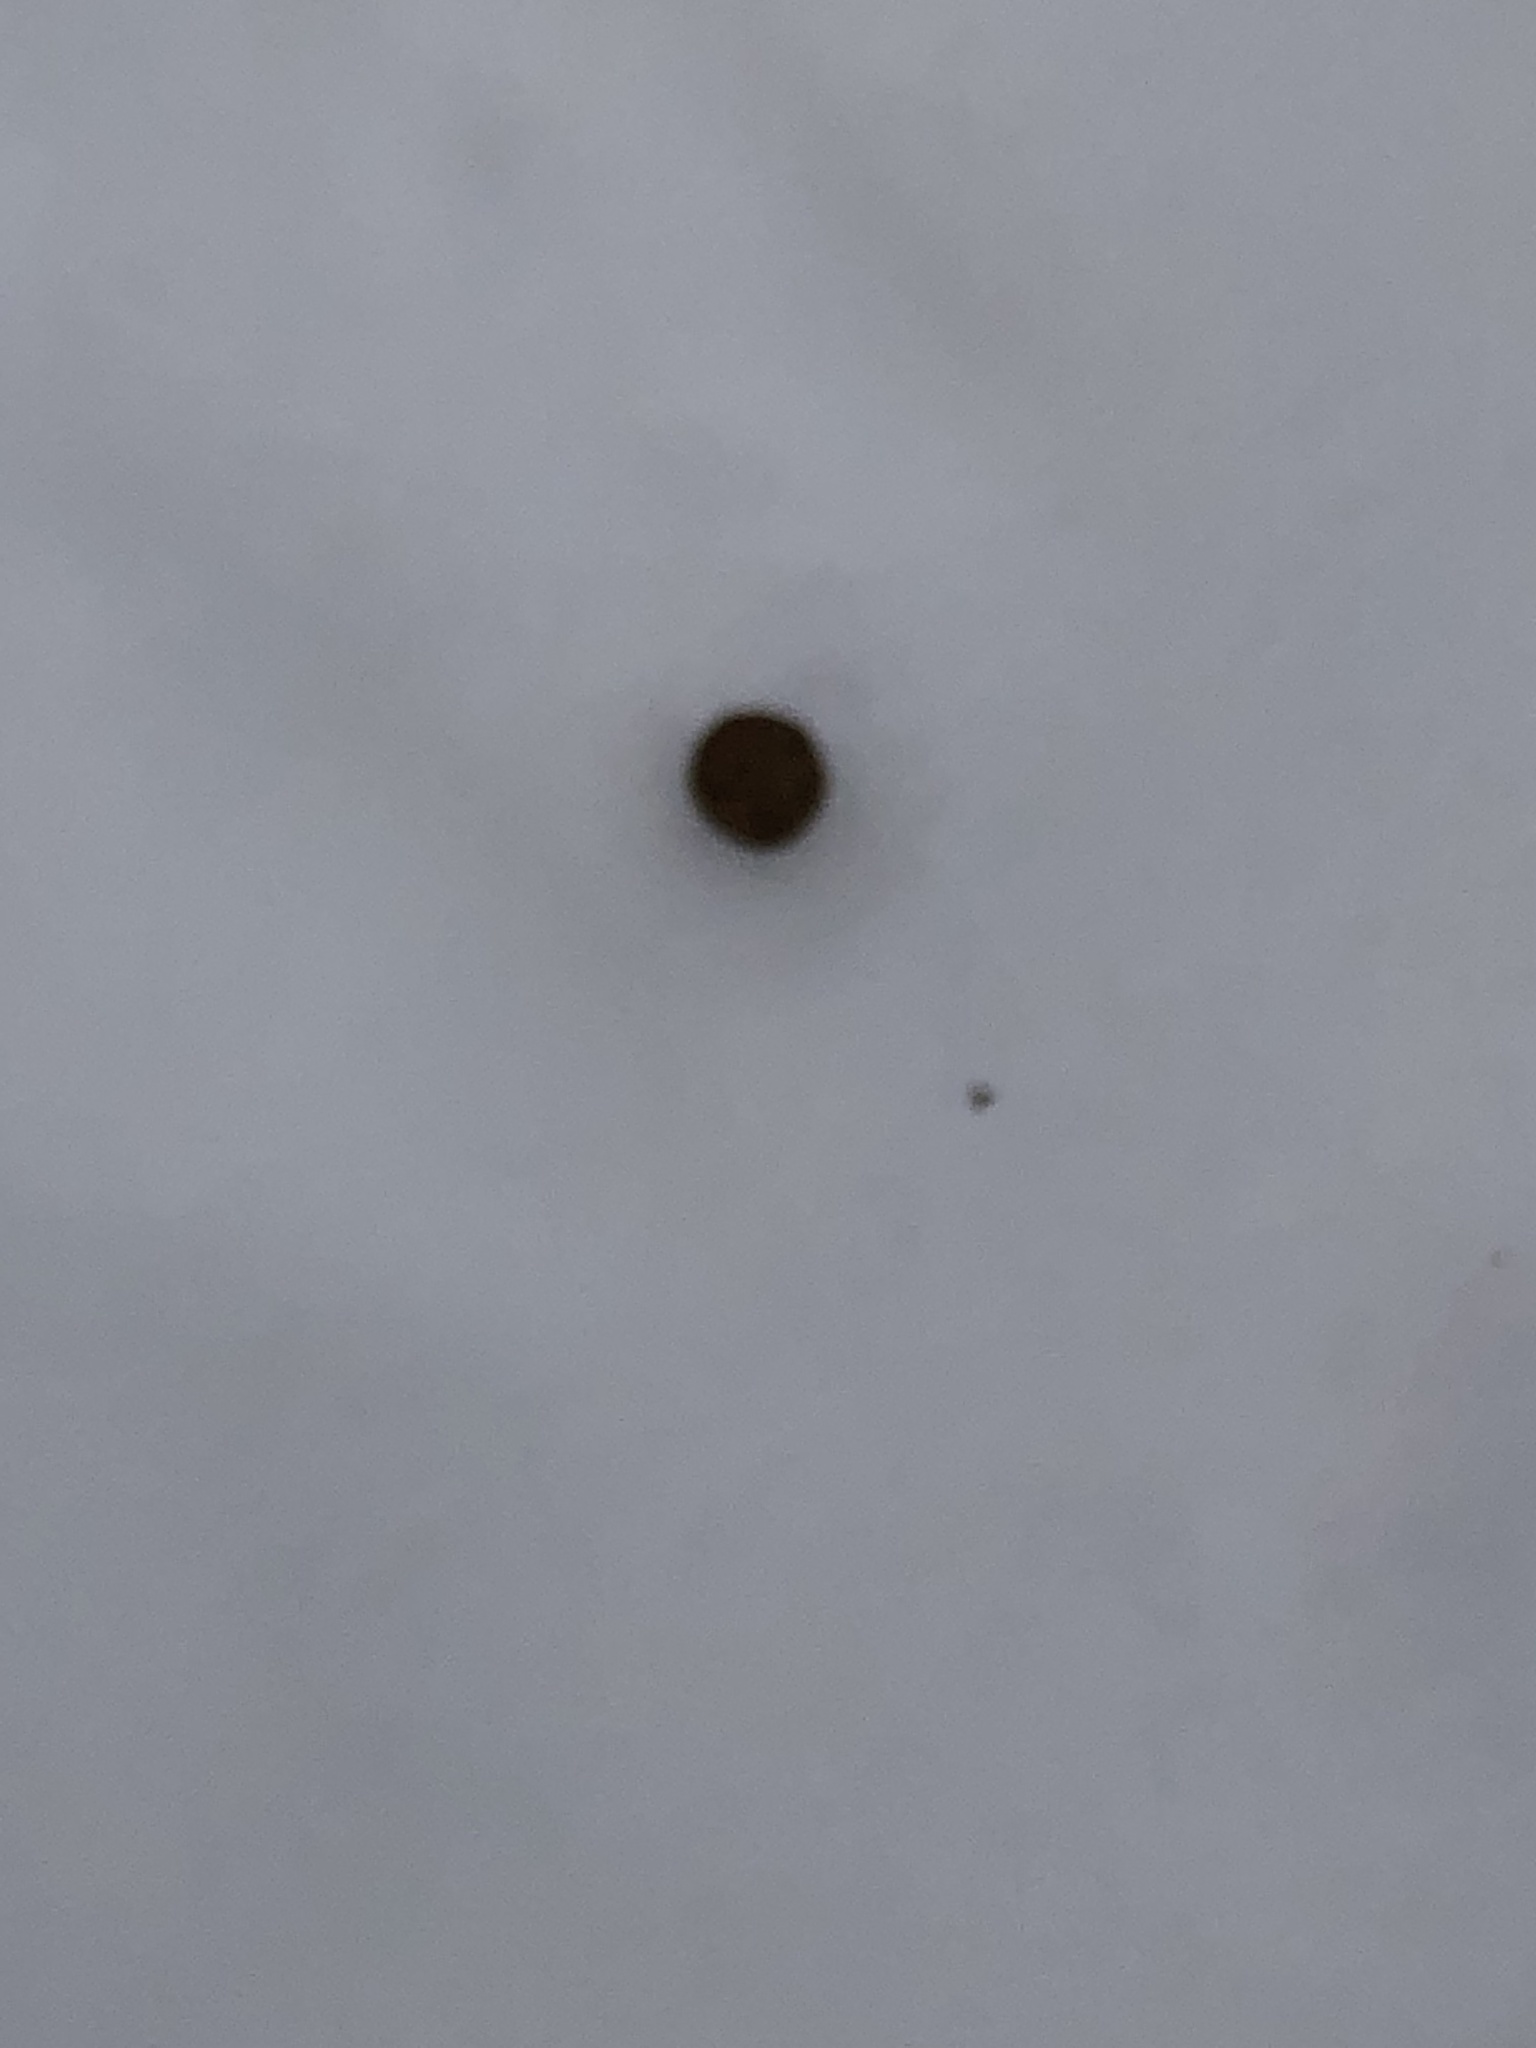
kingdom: Animalia
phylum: Chordata
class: Mammalia
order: Lagomorpha
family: Leporidae
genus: Sylvilagus
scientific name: Sylvilagus floridanus
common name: Eastern cottontail
